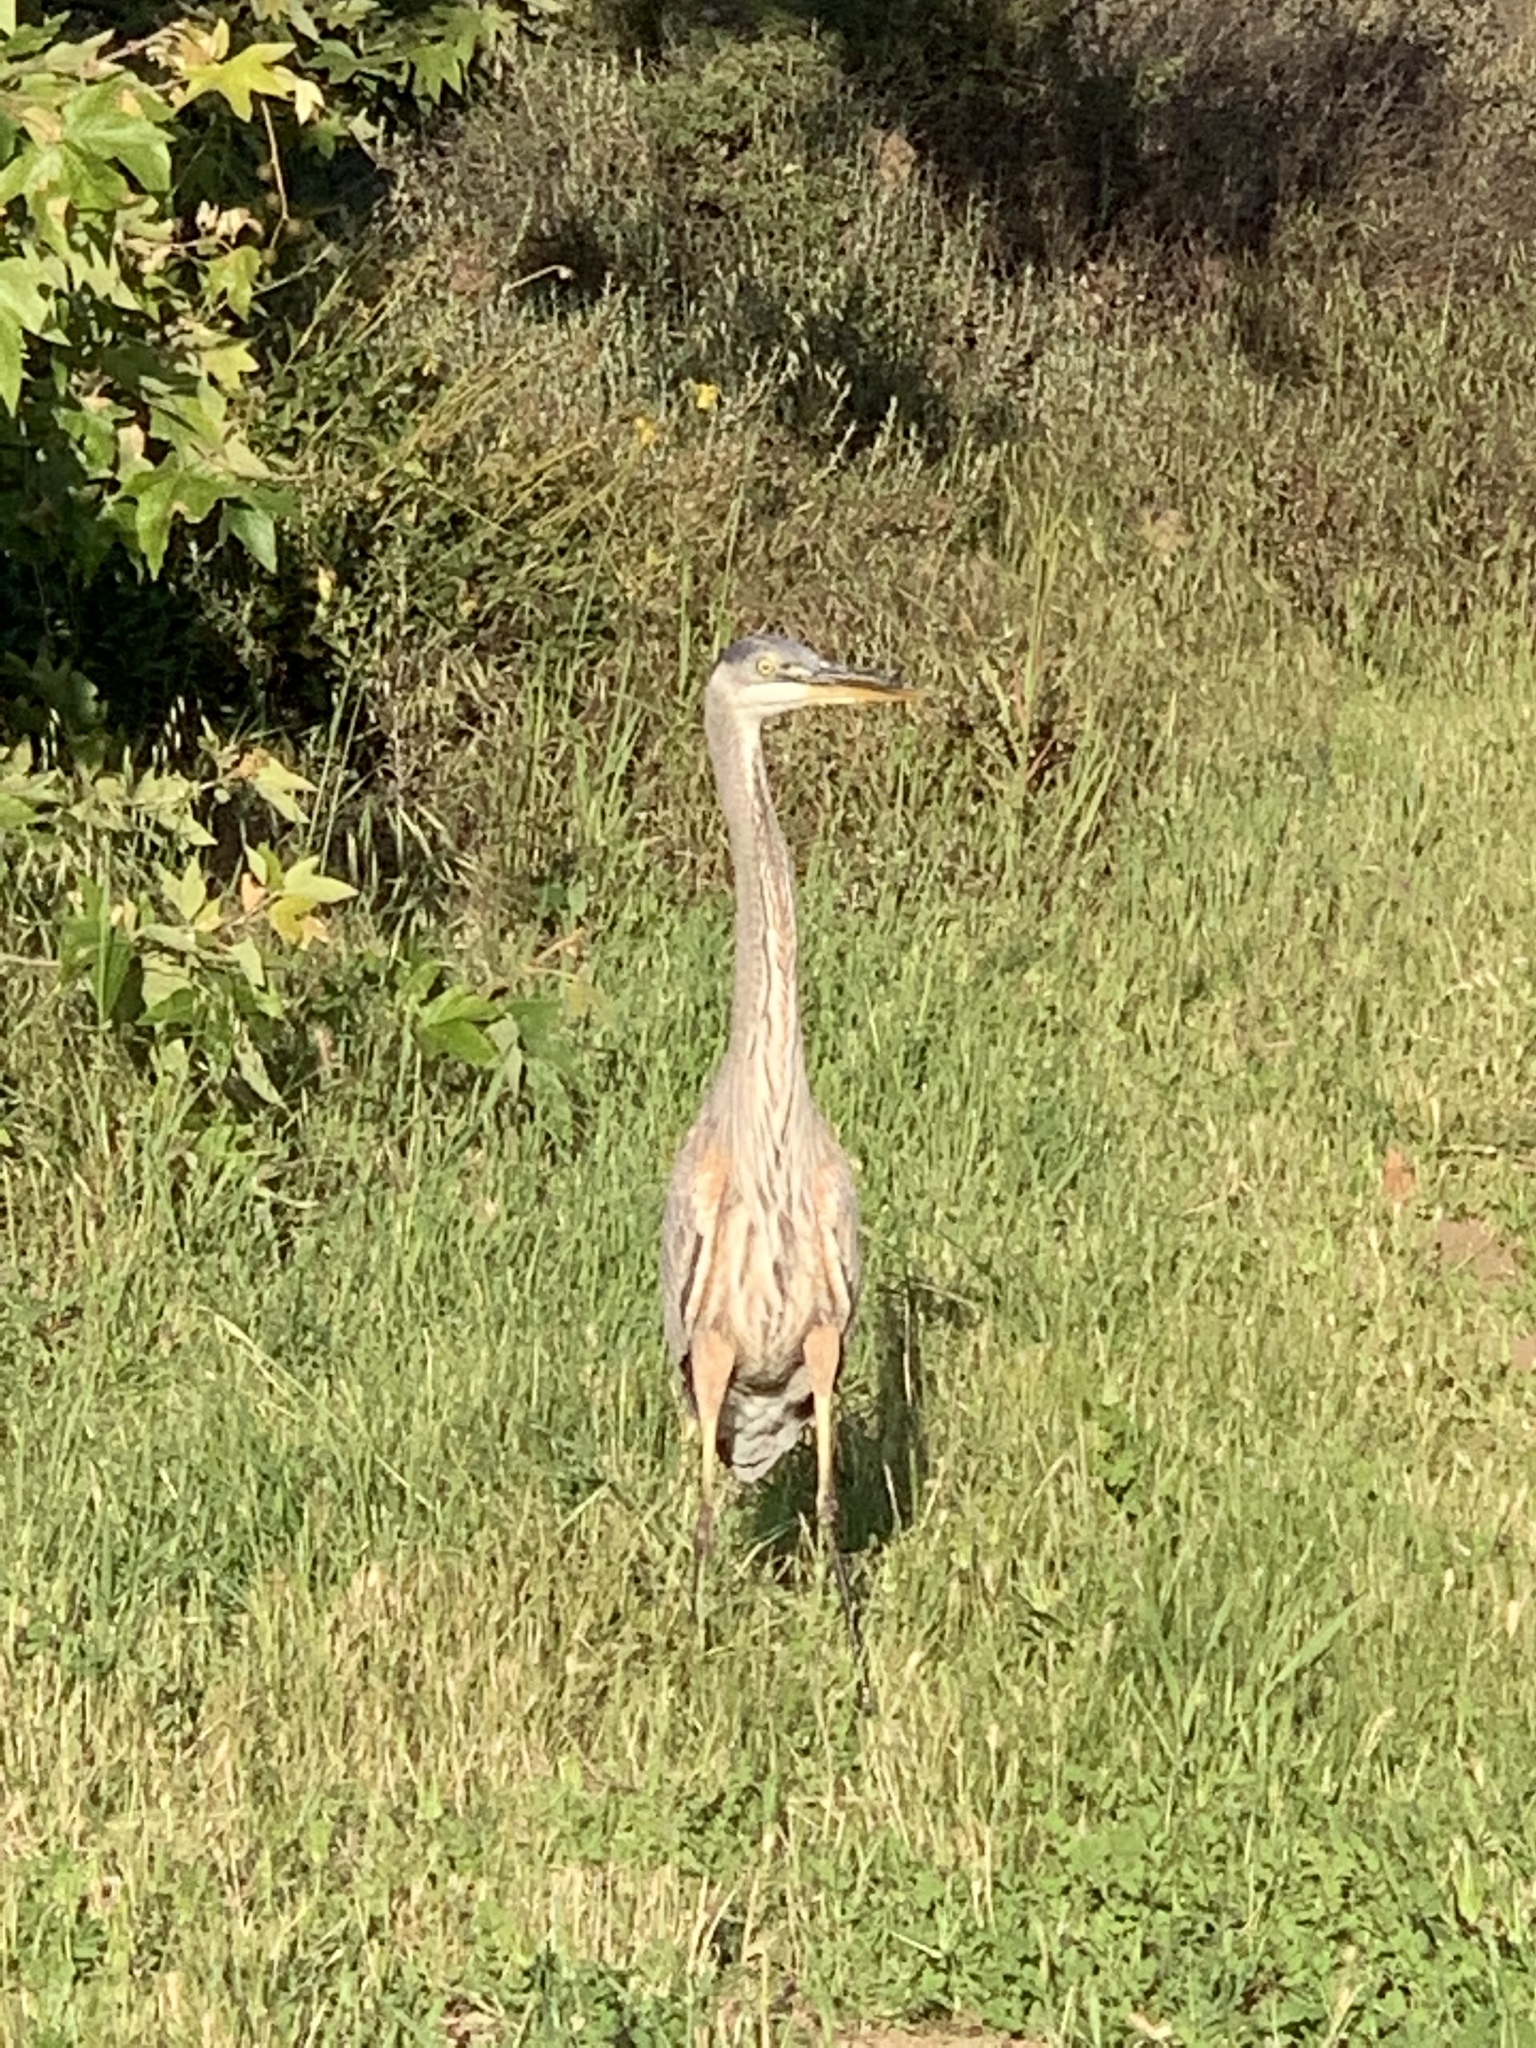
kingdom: Animalia
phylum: Chordata
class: Aves
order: Pelecaniformes
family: Ardeidae
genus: Ardea
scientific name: Ardea herodias
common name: Great blue heron
